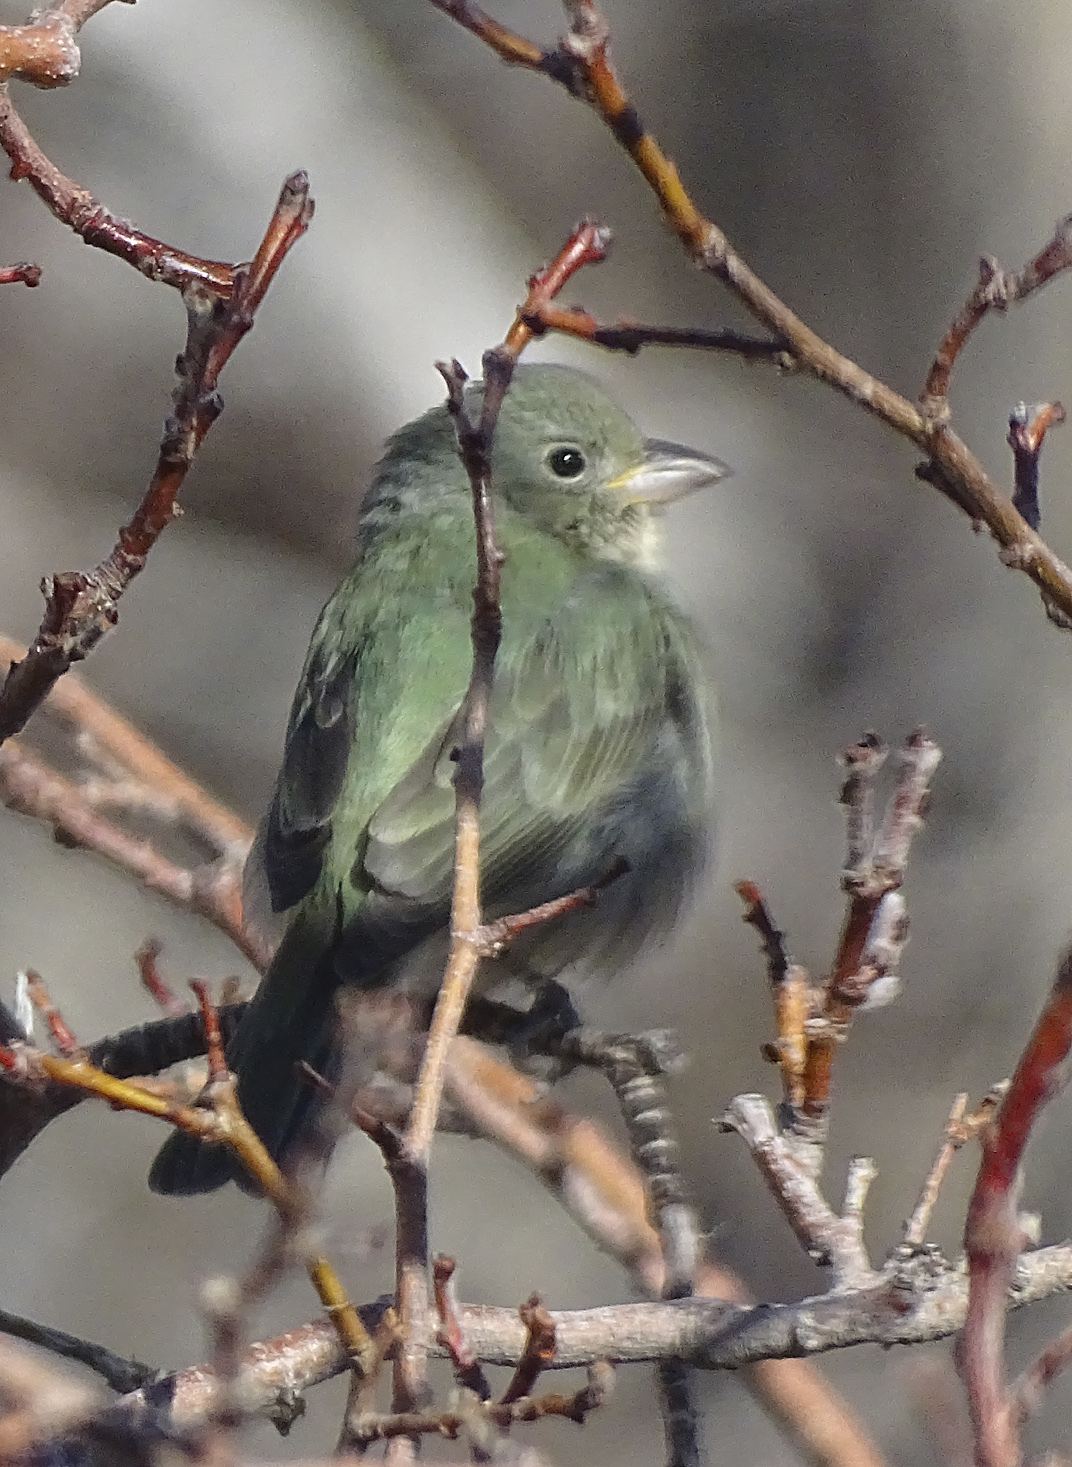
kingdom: Animalia
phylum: Chordata
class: Aves
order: Passeriformes
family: Cardinalidae
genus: Passerina
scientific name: Passerina ciris
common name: Painted bunting
